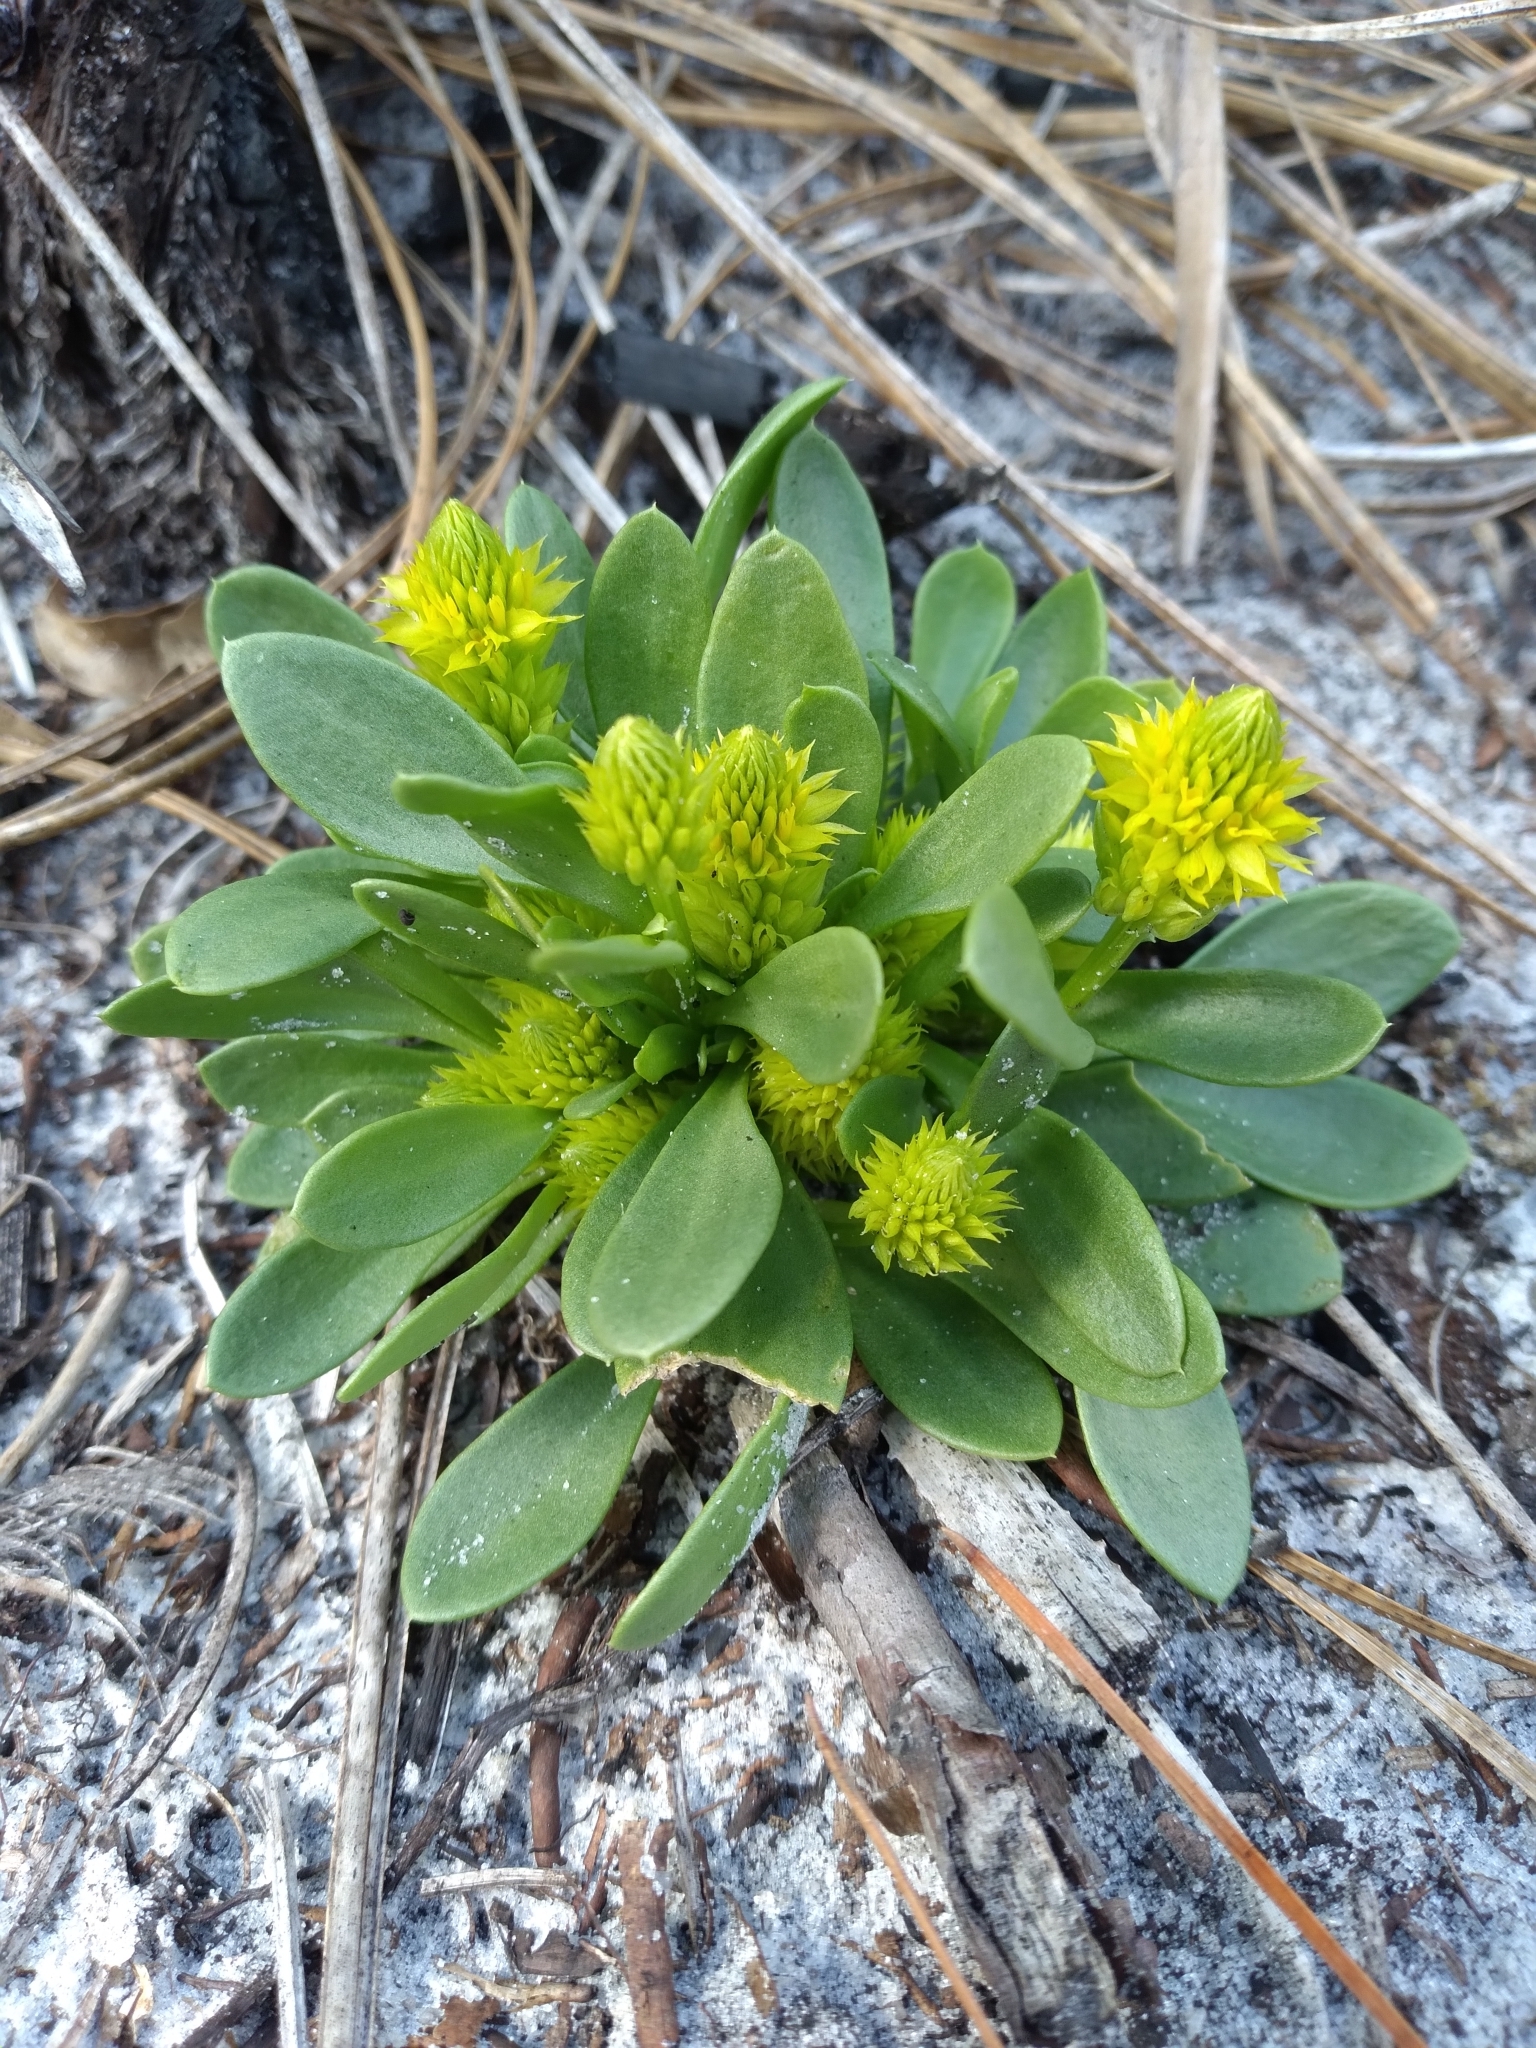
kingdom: Plantae
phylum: Tracheophyta
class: Magnoliopsida
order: Fabales
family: Polygalaceae
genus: Polygala
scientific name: Polygala nana
